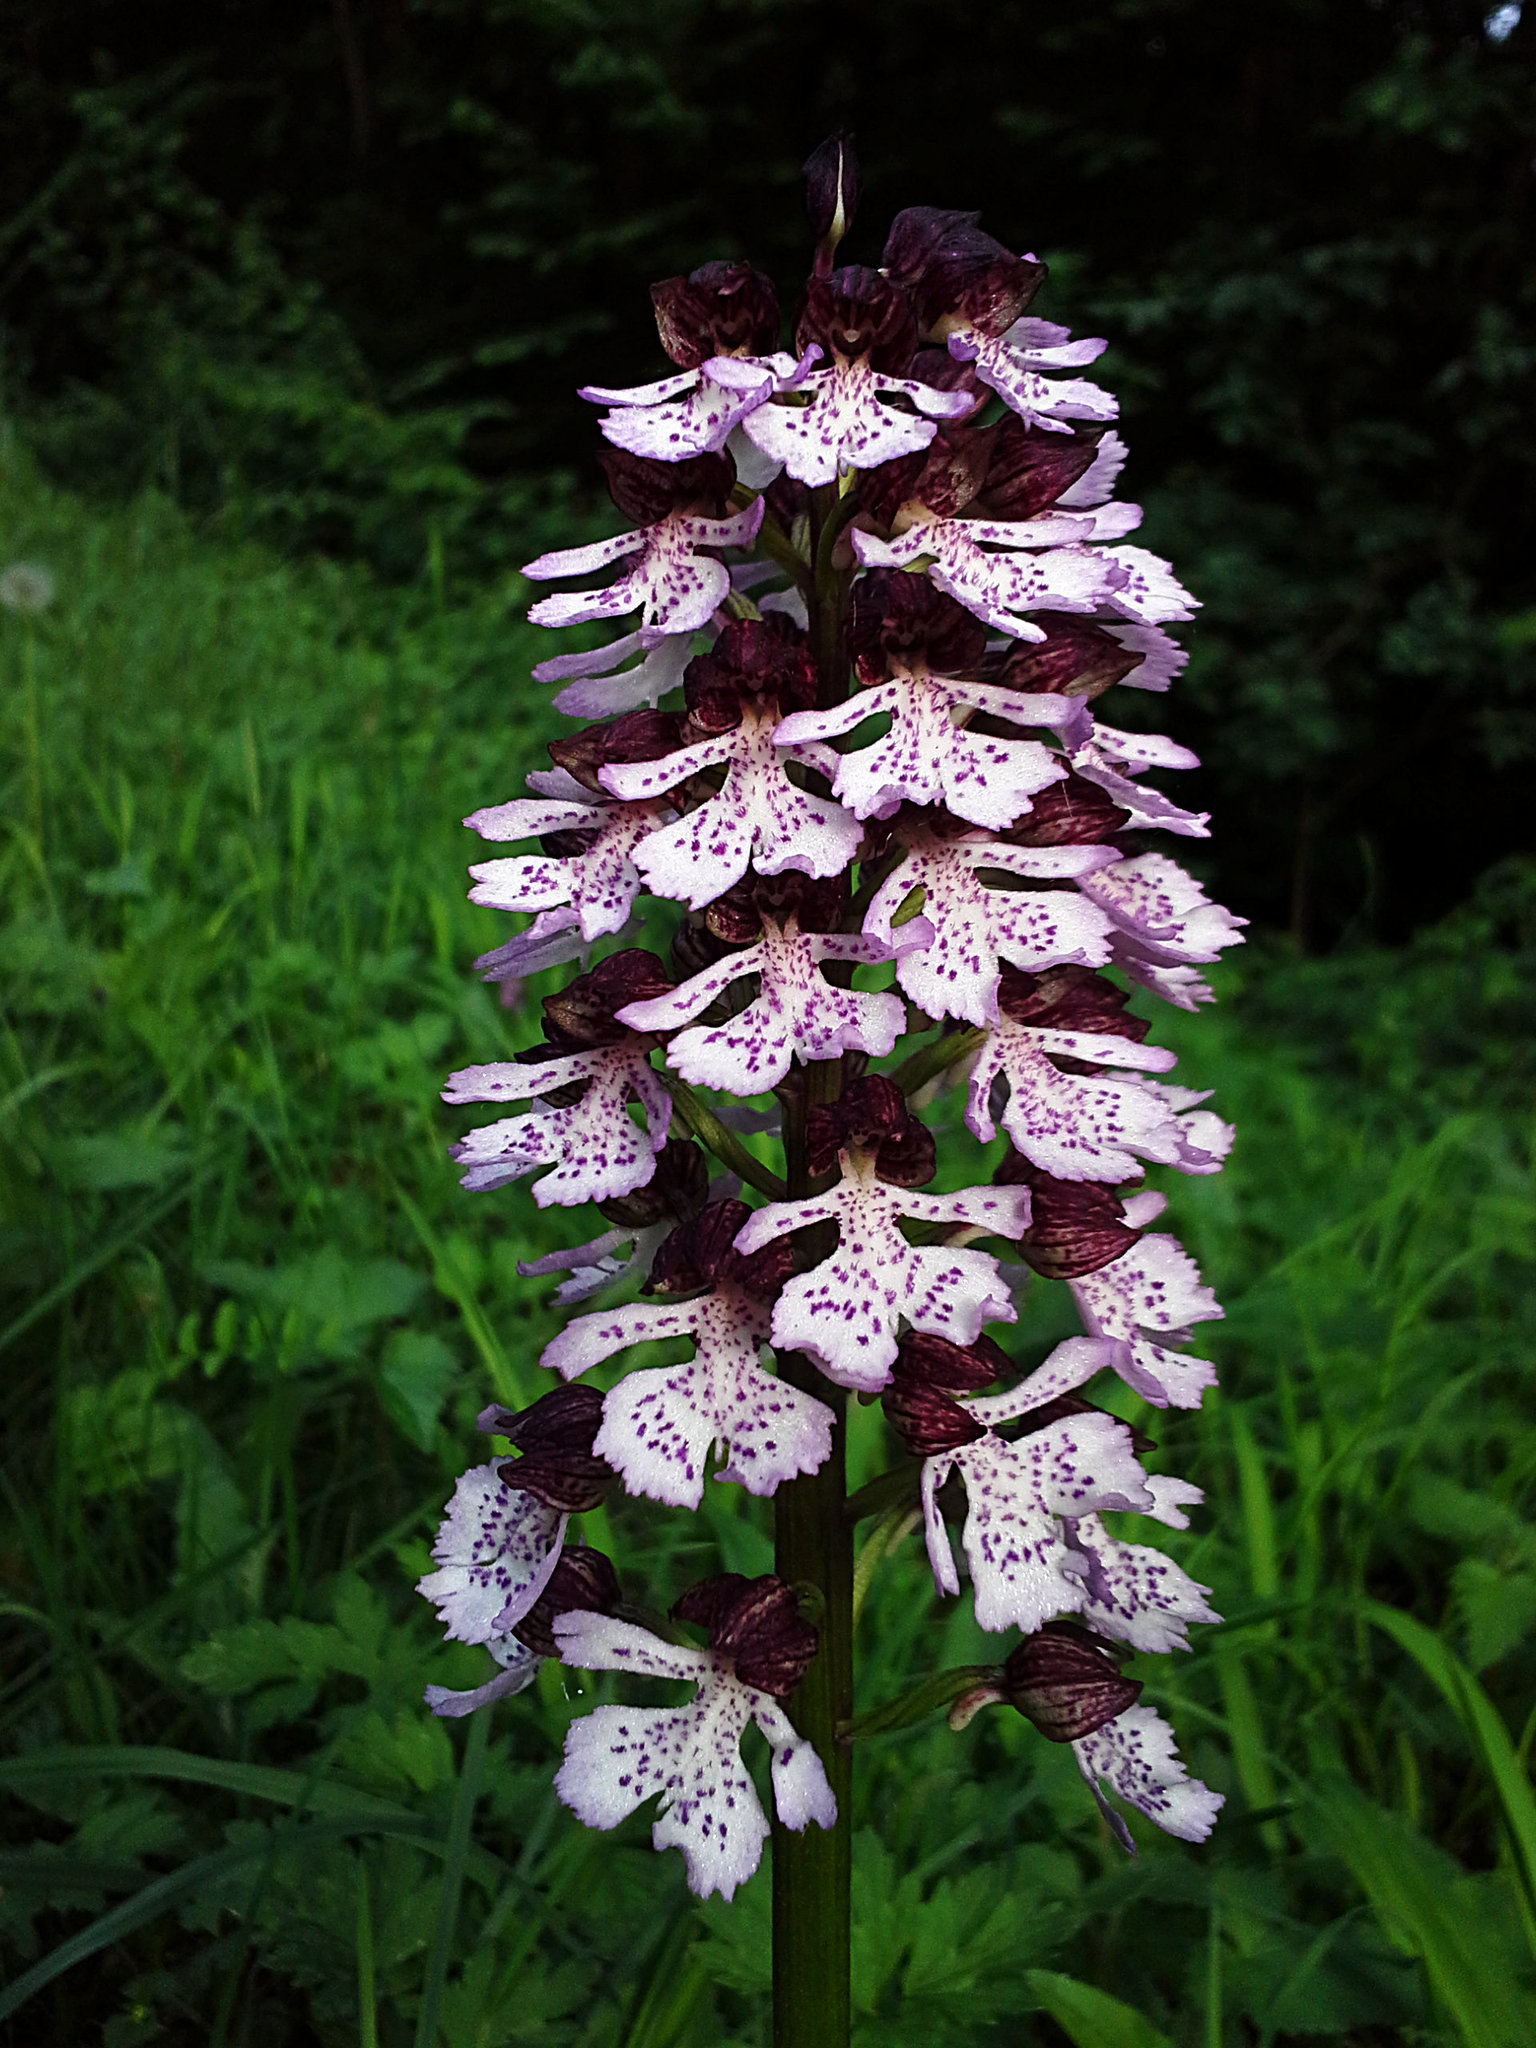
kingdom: Plantae
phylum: Tracheophyta
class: Liliopsida
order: Asparagales
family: Orchidaceae
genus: Orchis
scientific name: Orchis purpurea
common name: Lady orchid
